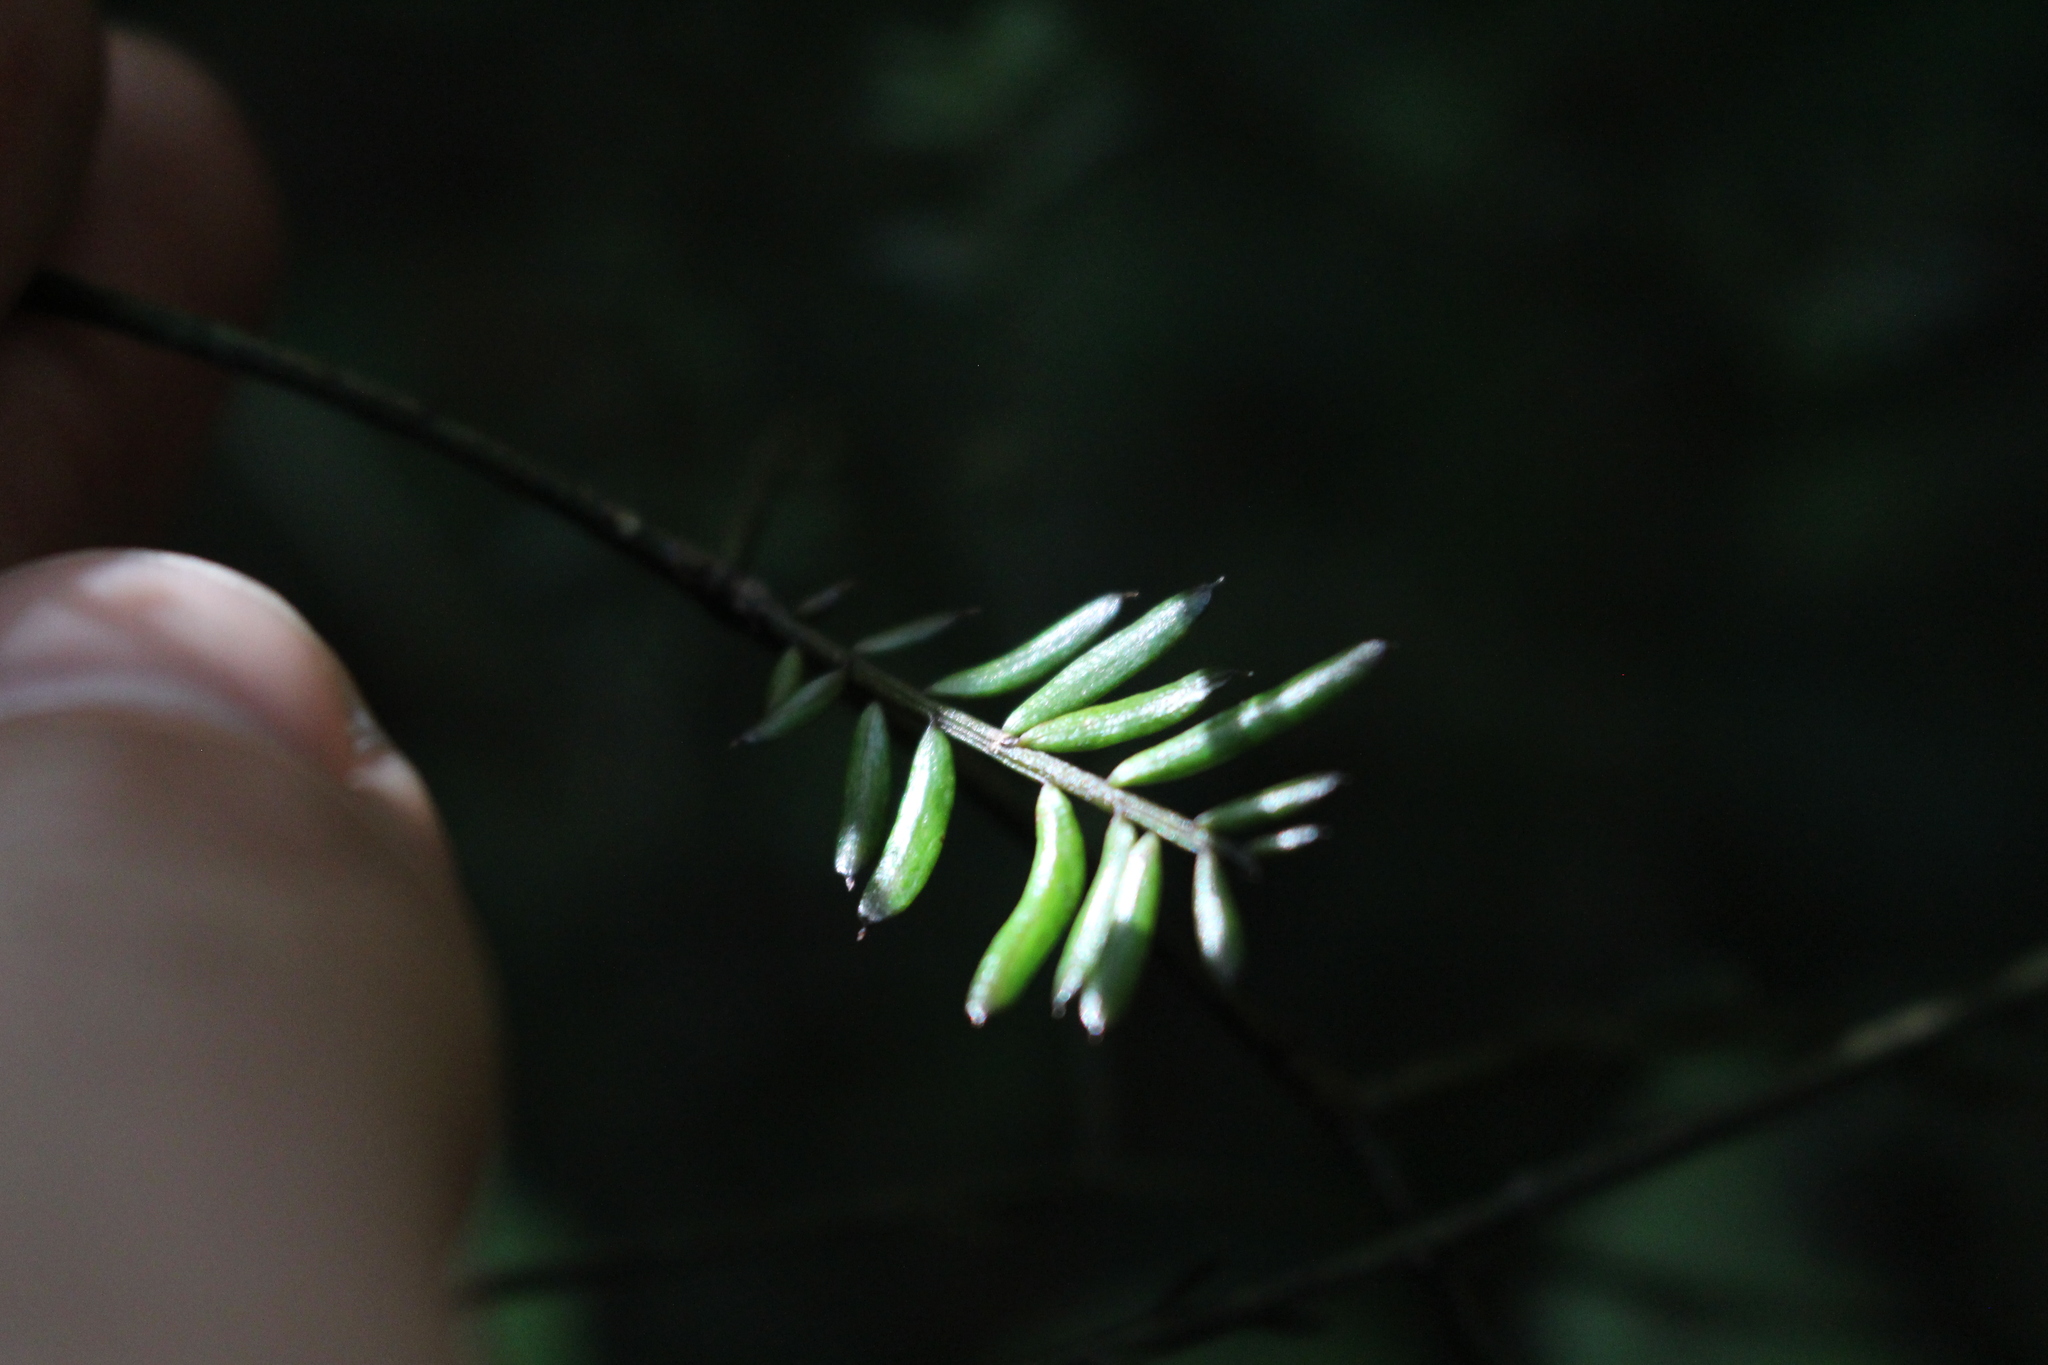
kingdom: Plantae
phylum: Tracheophyta
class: Pinopsida
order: Pinales
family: Podocarpaceae
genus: Prumnopitys
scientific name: Prumnopitys taxifolia
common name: Matai
